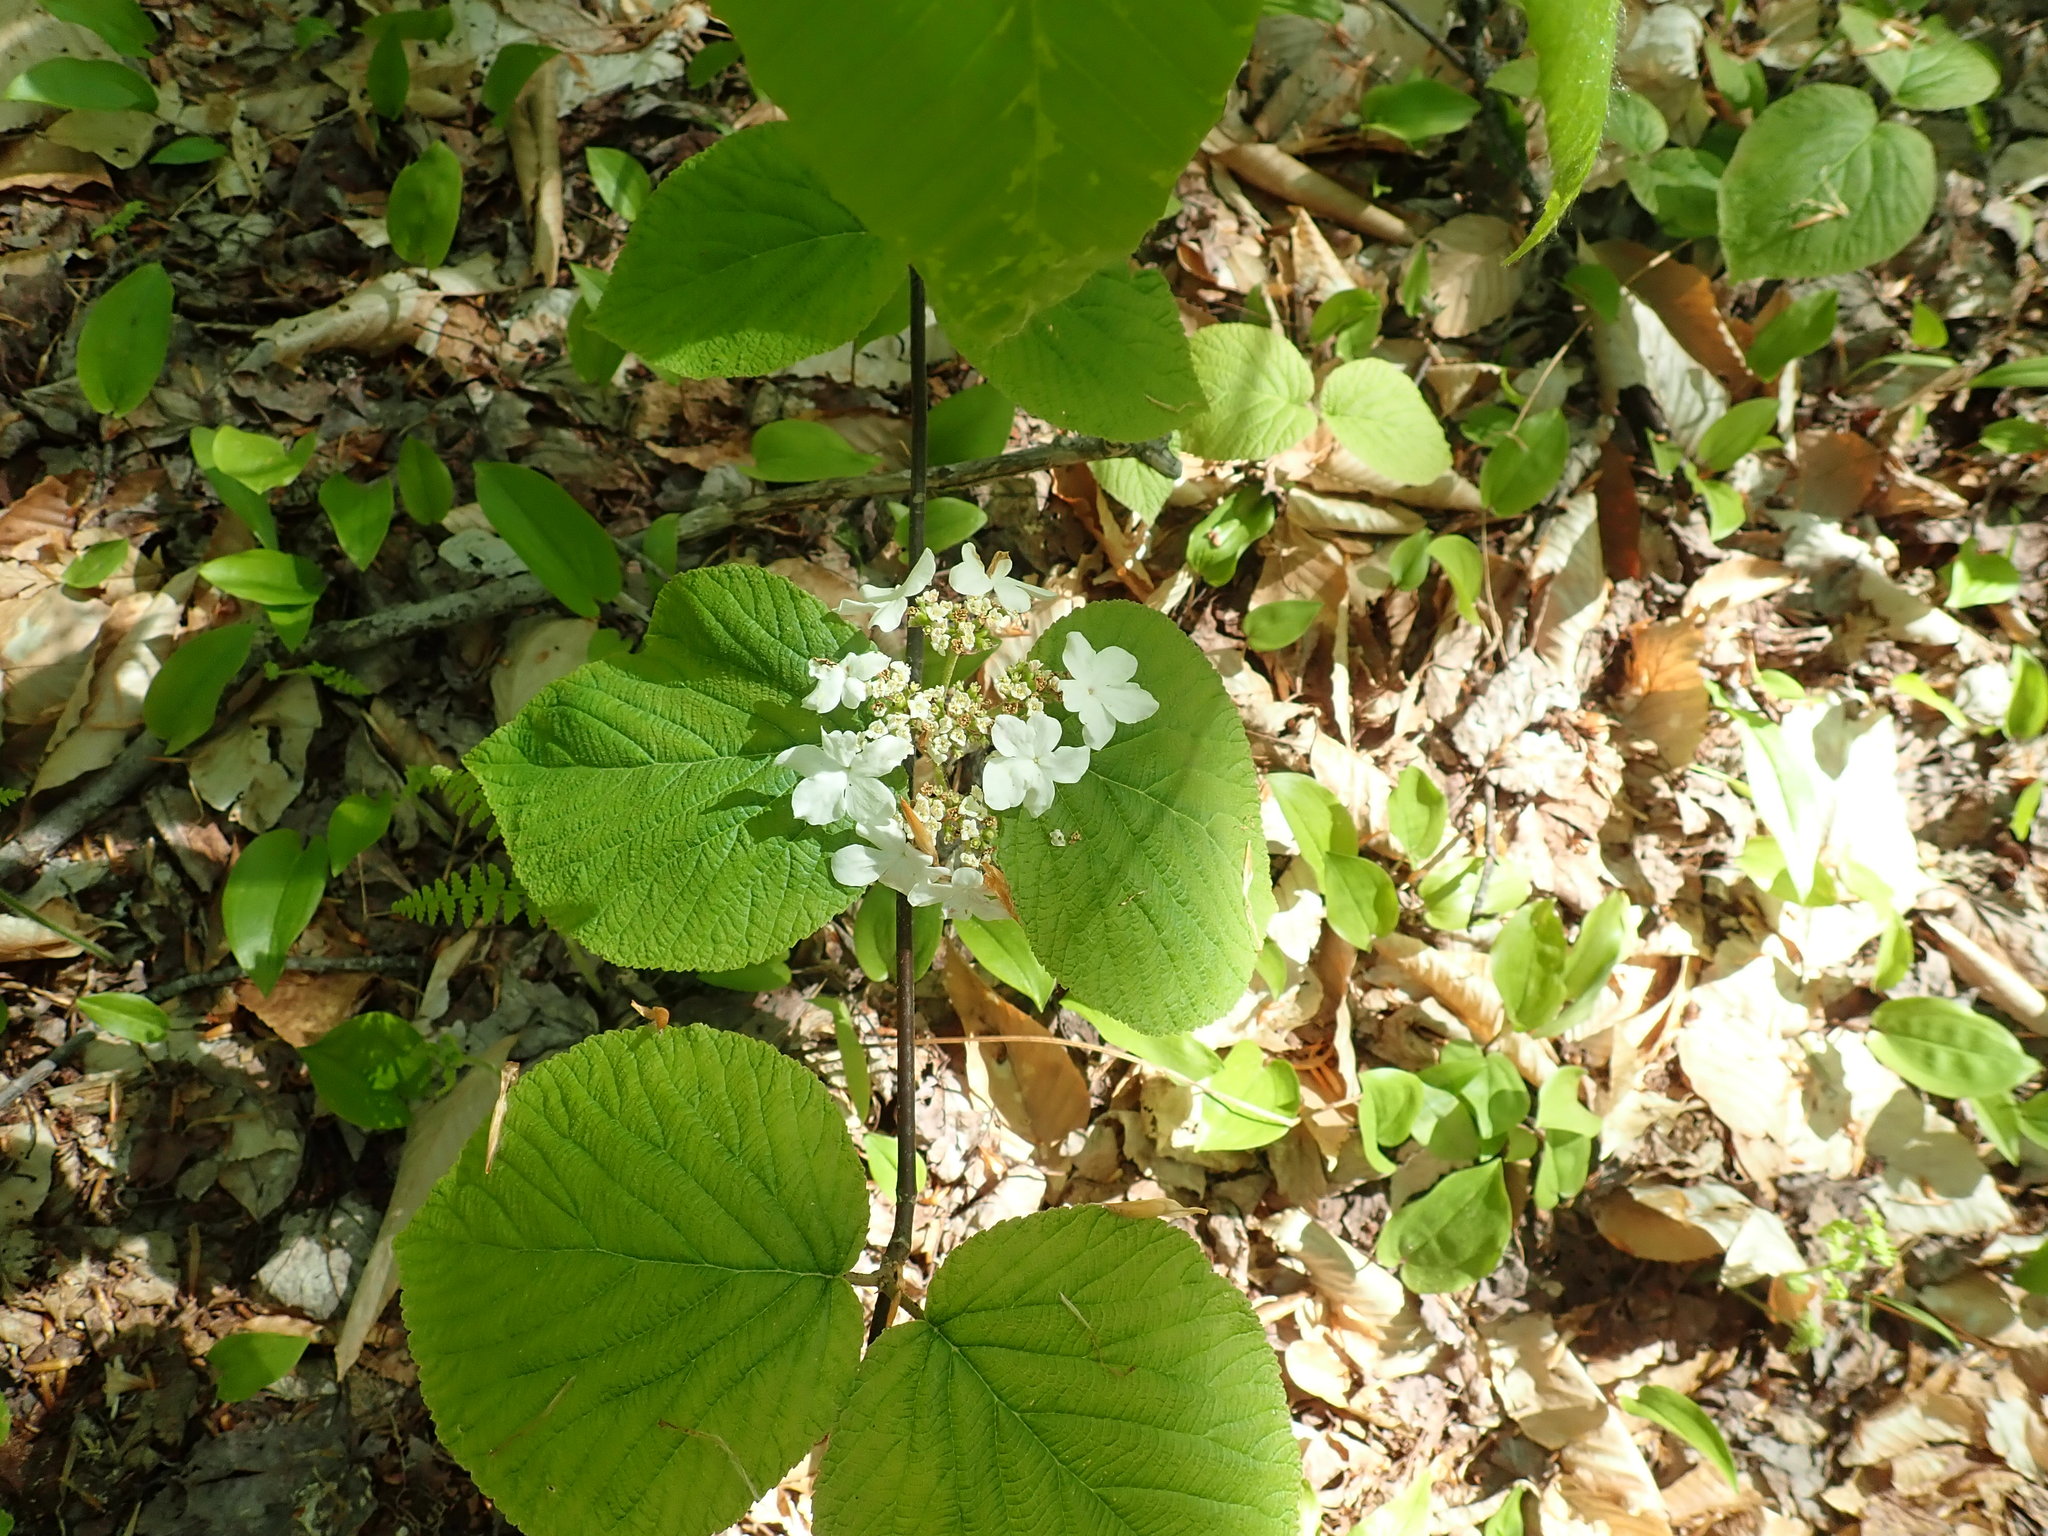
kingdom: Plantae
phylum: Tracheophyta
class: Magnoliopsida
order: Dipsacales
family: Viburnaceae
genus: Viburnum
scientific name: Viburnum lantanoides
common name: Hobblebush
